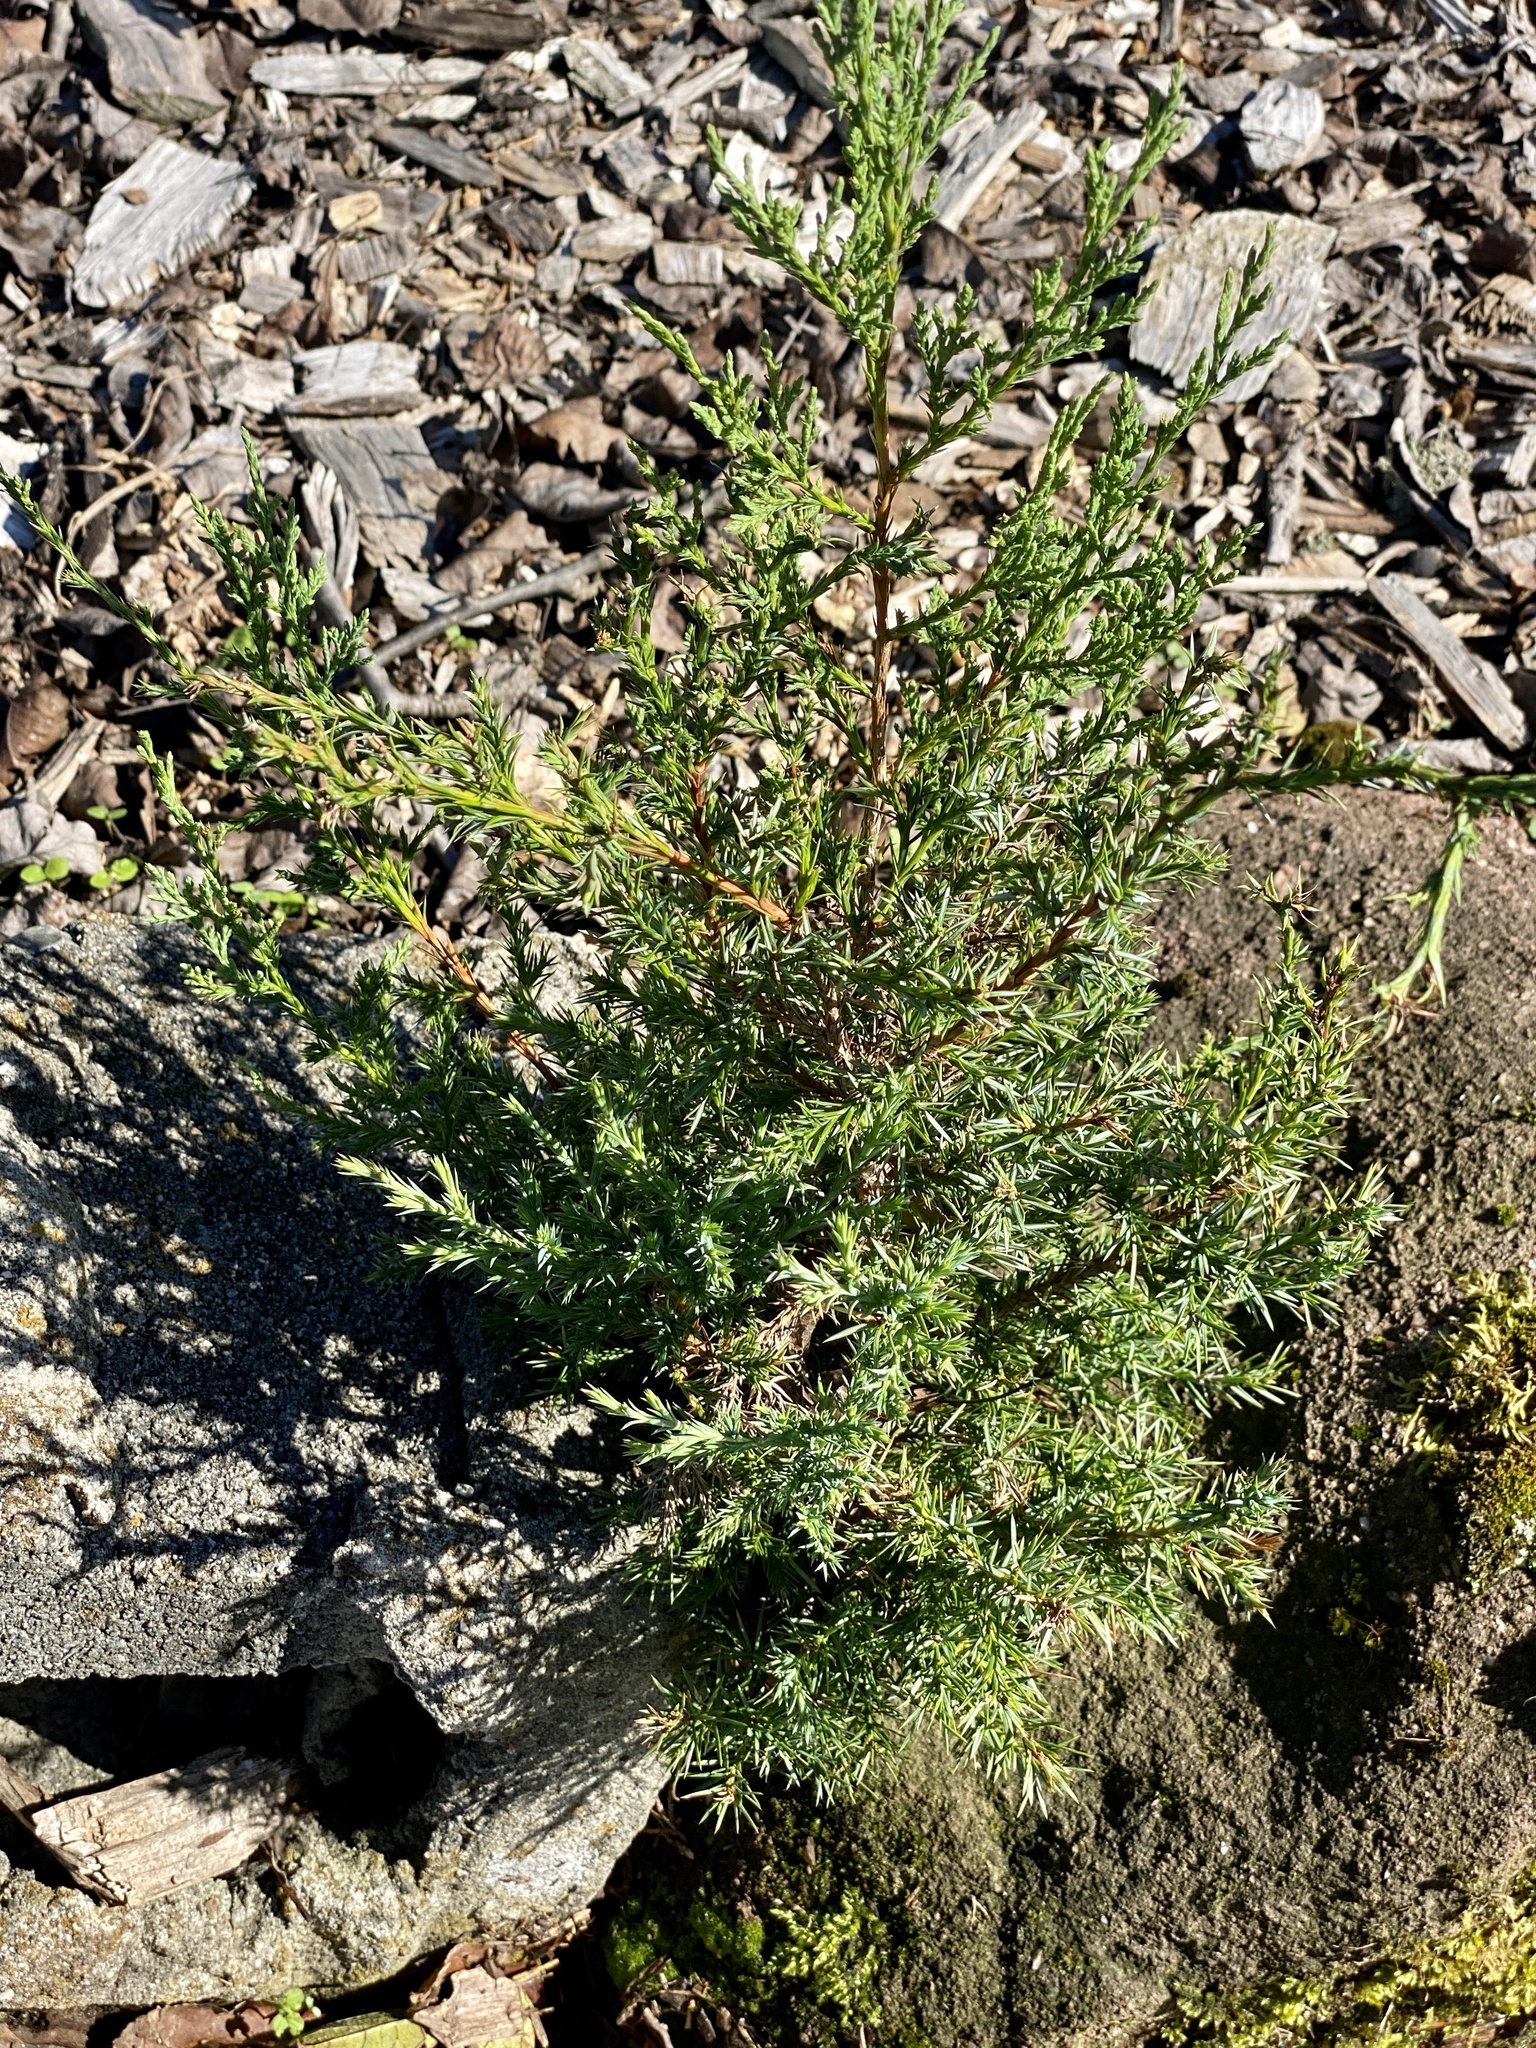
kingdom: Plantae
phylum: Tracheophyta
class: Pinopsida
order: Pinales
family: Cupressaceae
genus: Juniperus
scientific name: Juniperus virginiana
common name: Red juniper
